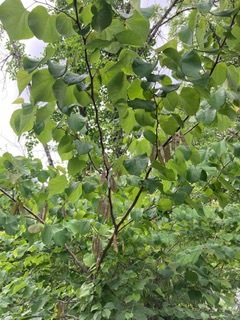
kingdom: Plantae
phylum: Tracheophyta
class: Magnoliopsida
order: Fabales
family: Fabaceae
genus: Cercis
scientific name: Cercis canadensis
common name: Eastern redbud
